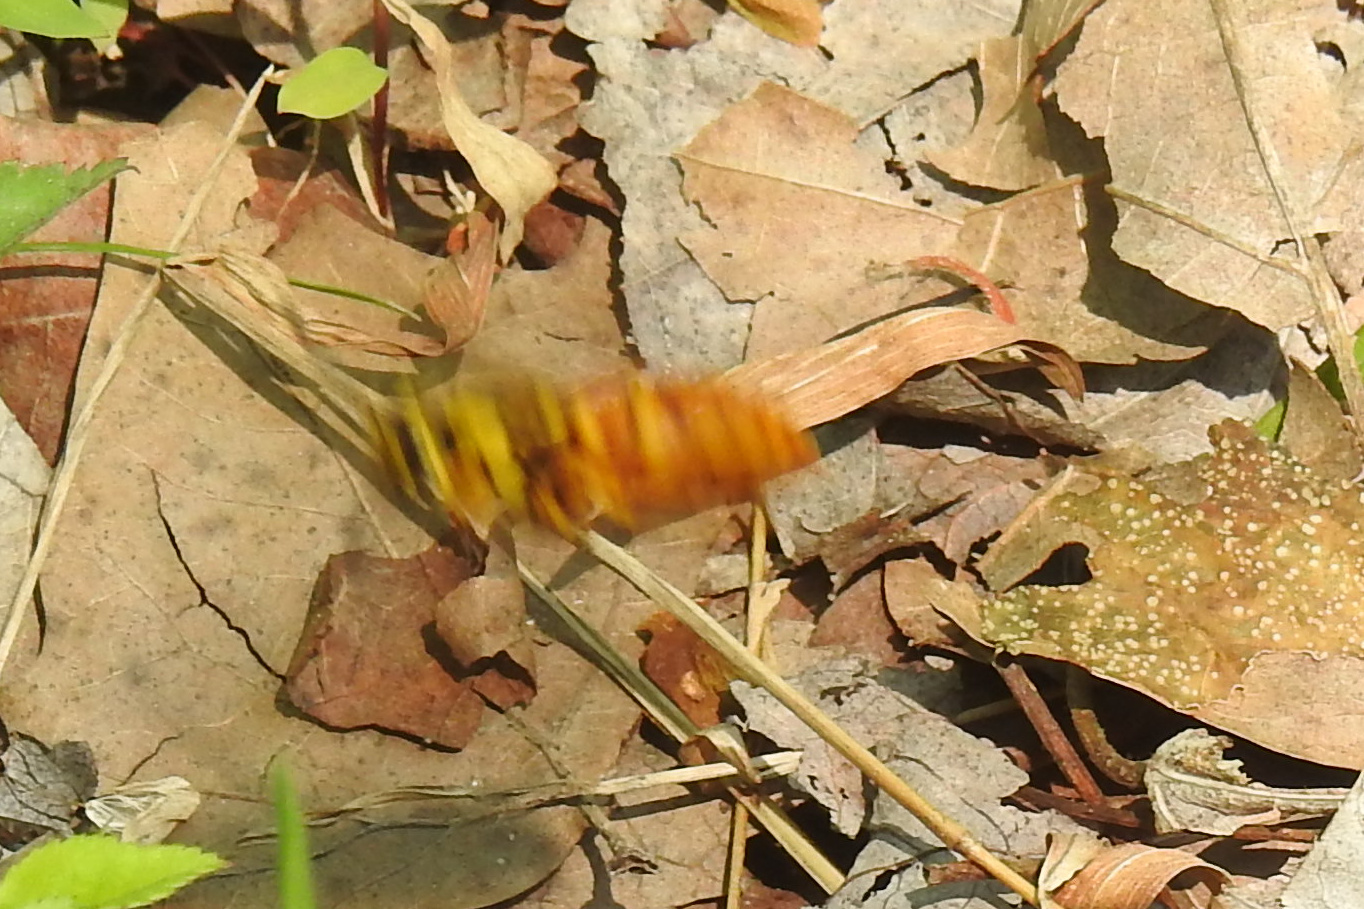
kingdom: Animalia
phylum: Arthropoda
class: Insecta
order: Hymenoptera
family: Vespidae
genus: Vespula
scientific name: Vespula squamosa
